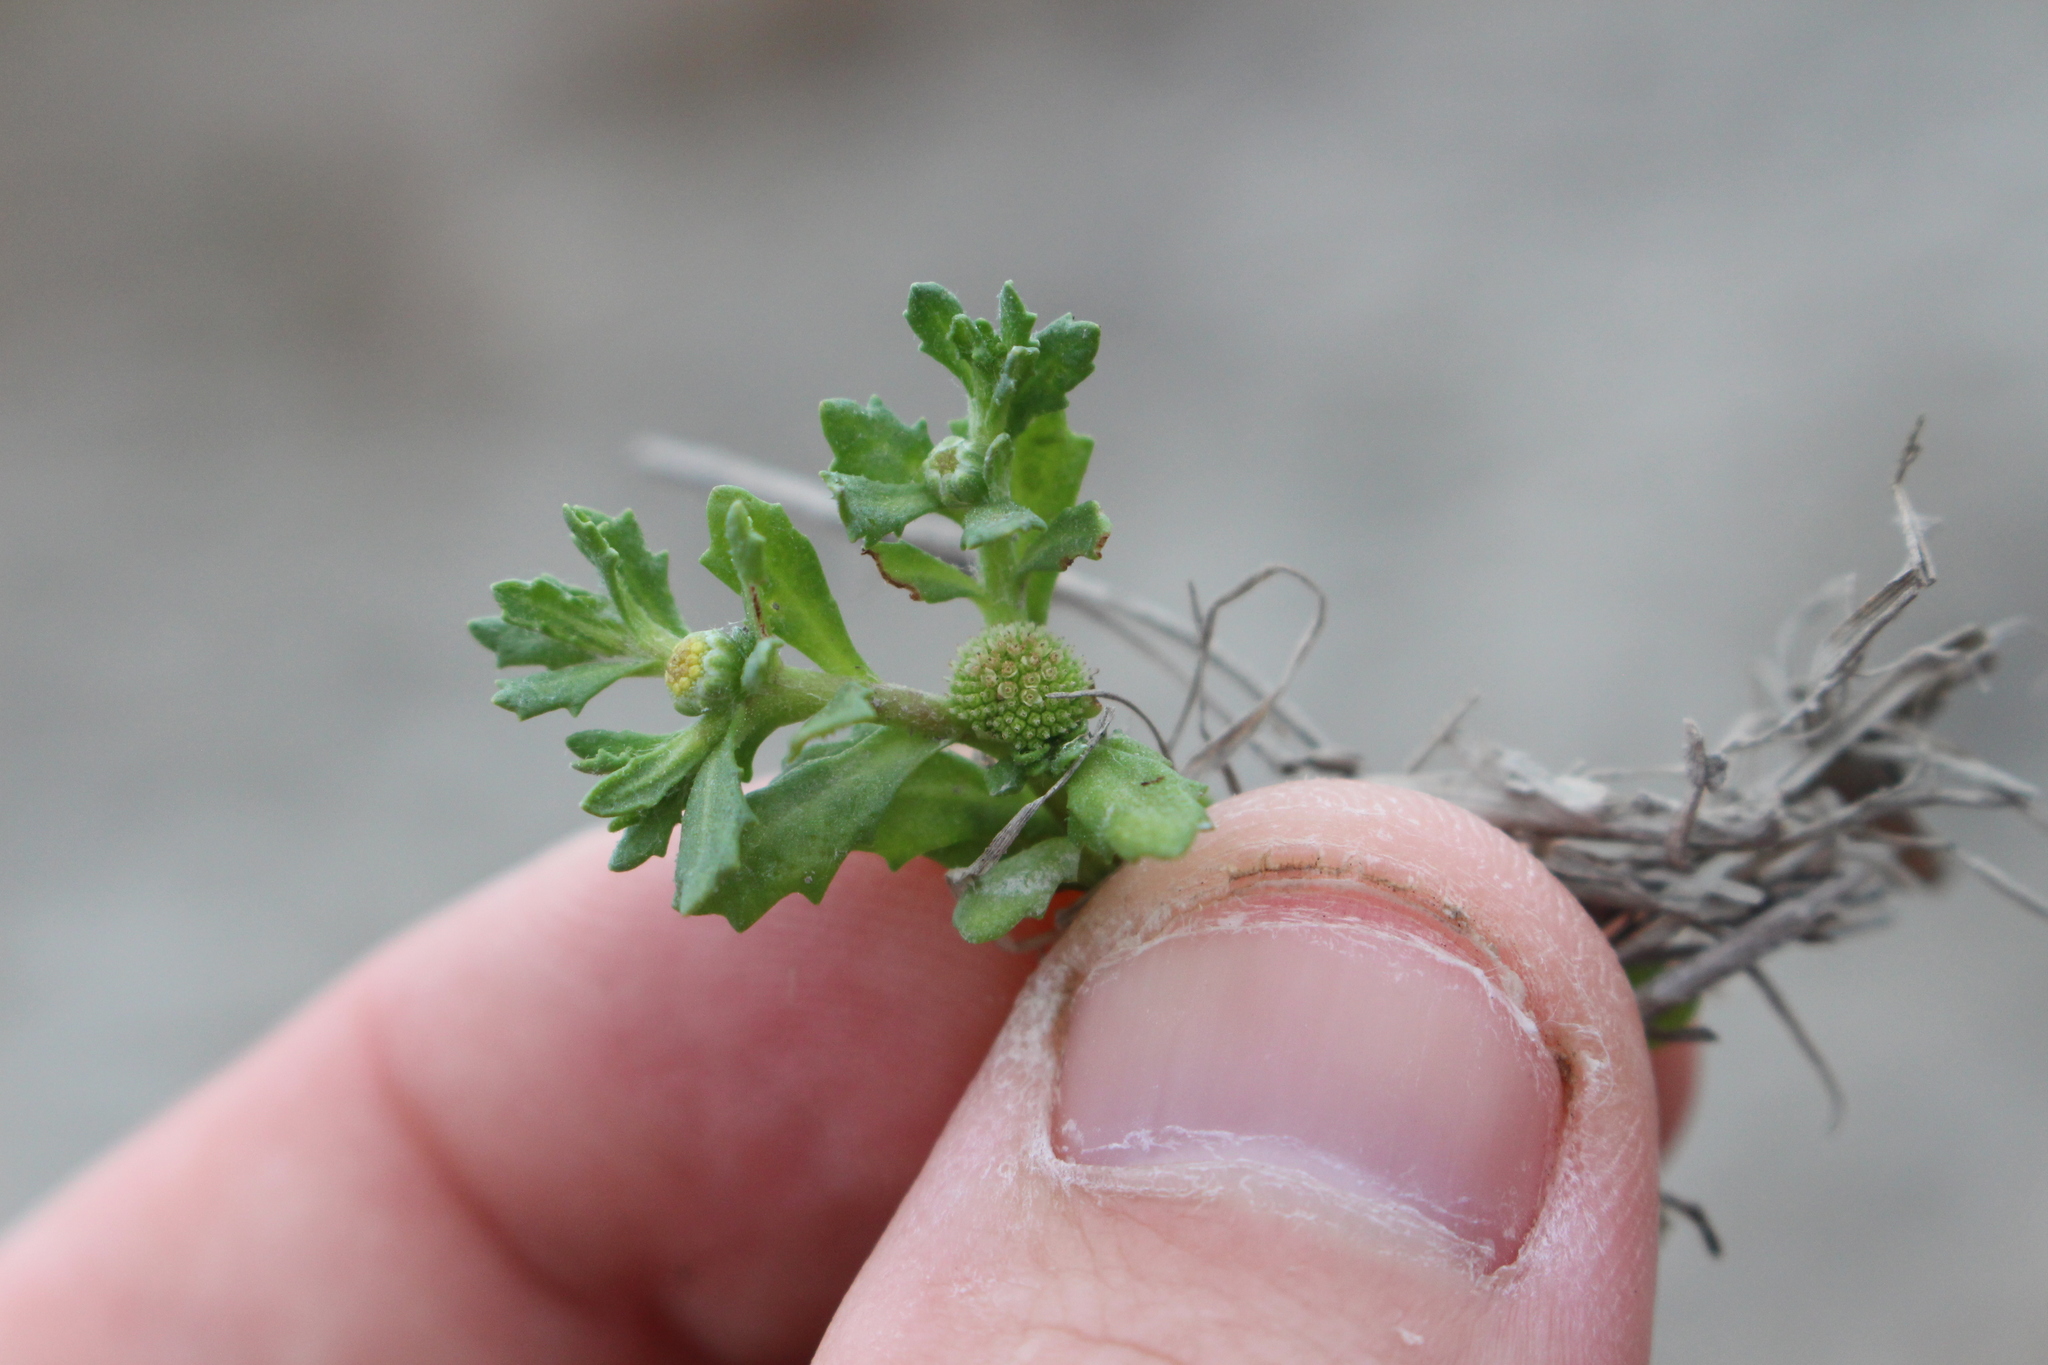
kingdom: Plantae
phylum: Tracheophyta
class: Magnoliopsida
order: Asterales
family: Asteraceae
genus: Centipeda
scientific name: Centipeda cunninghamii
